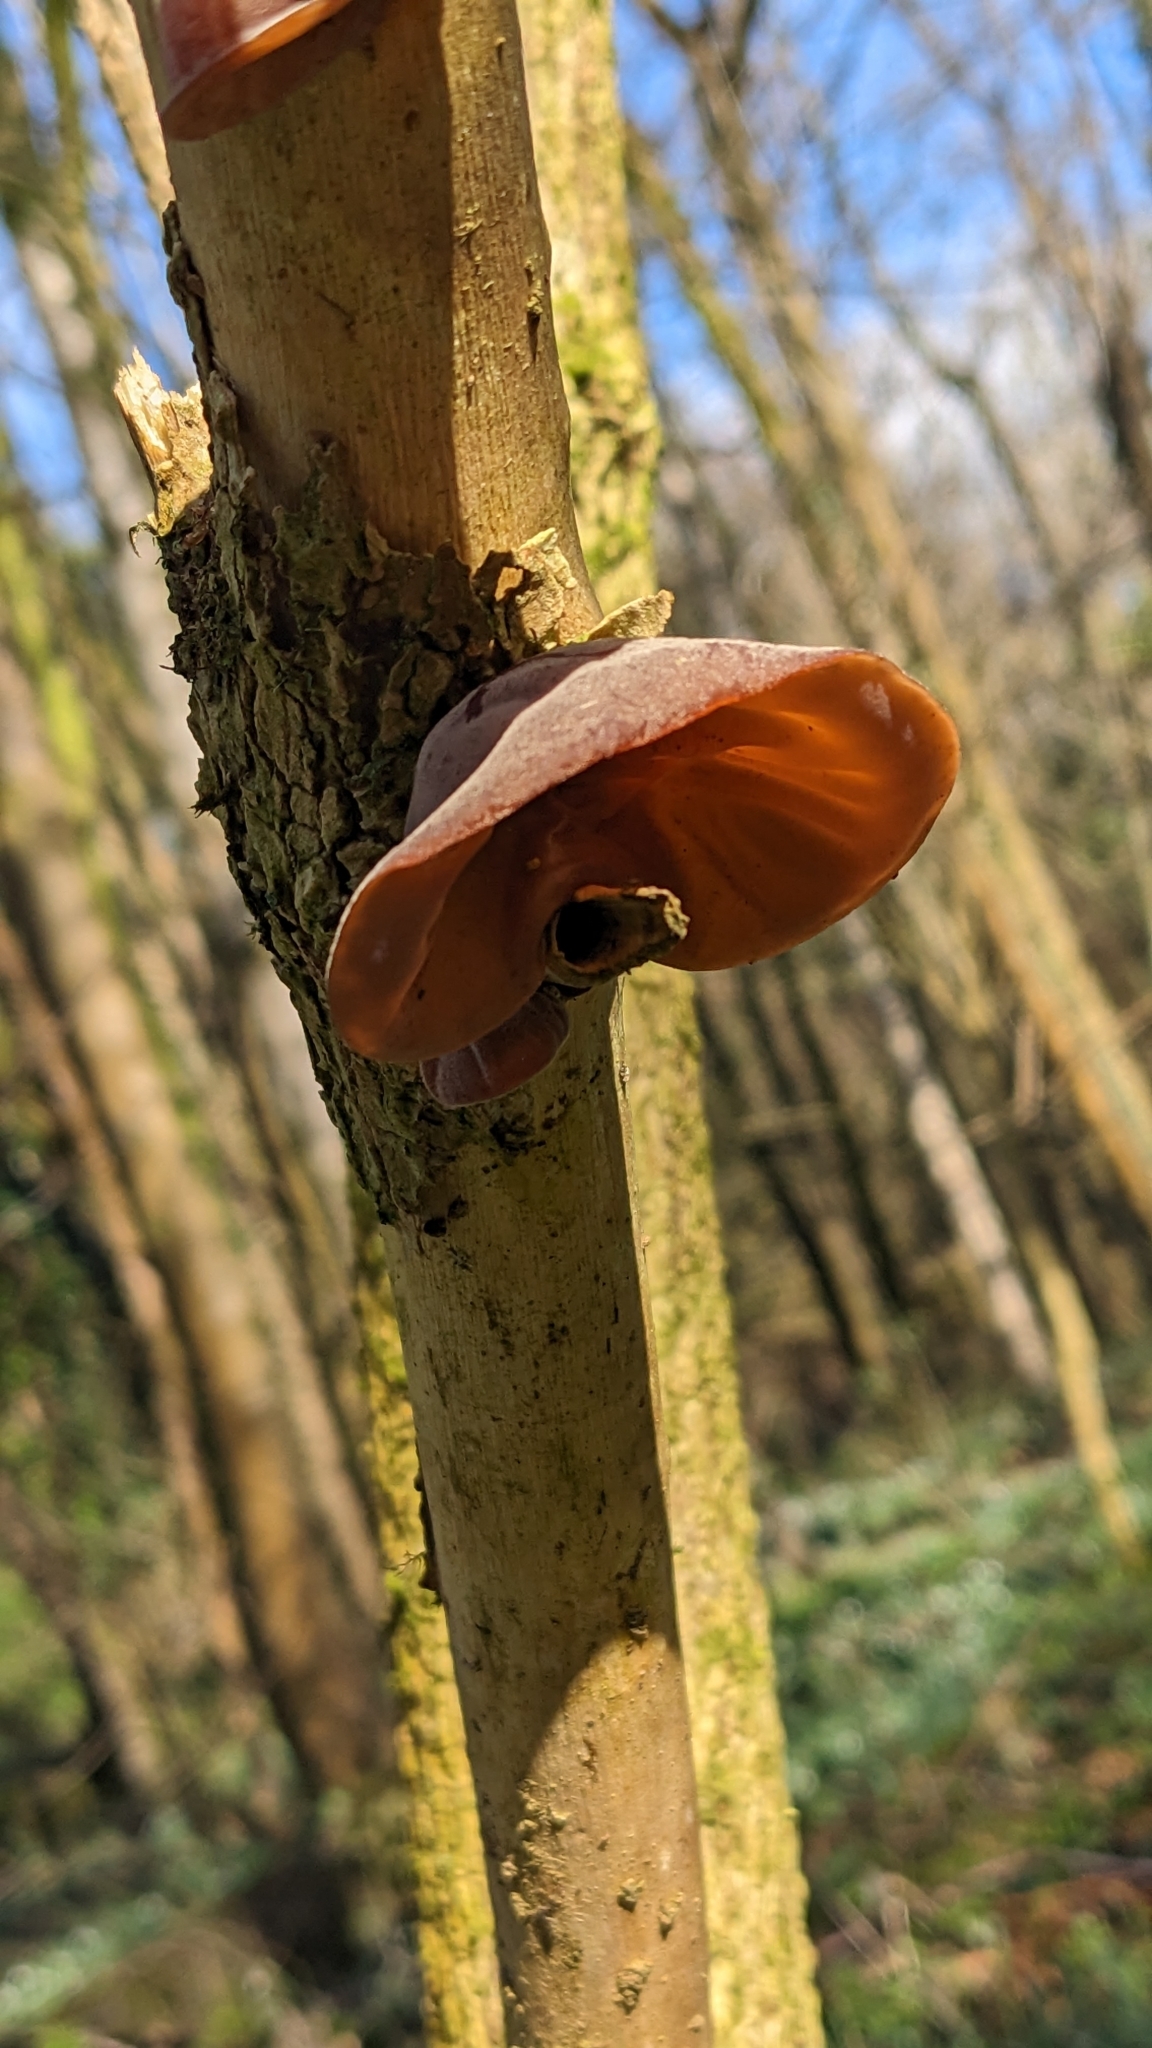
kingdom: Fungi
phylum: Basidiomycota
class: Agaricomycetes
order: Auriculariales
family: Auriculariaceae
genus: Auricularia
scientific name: Auricularia auricula-judae
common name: Jelly ear
